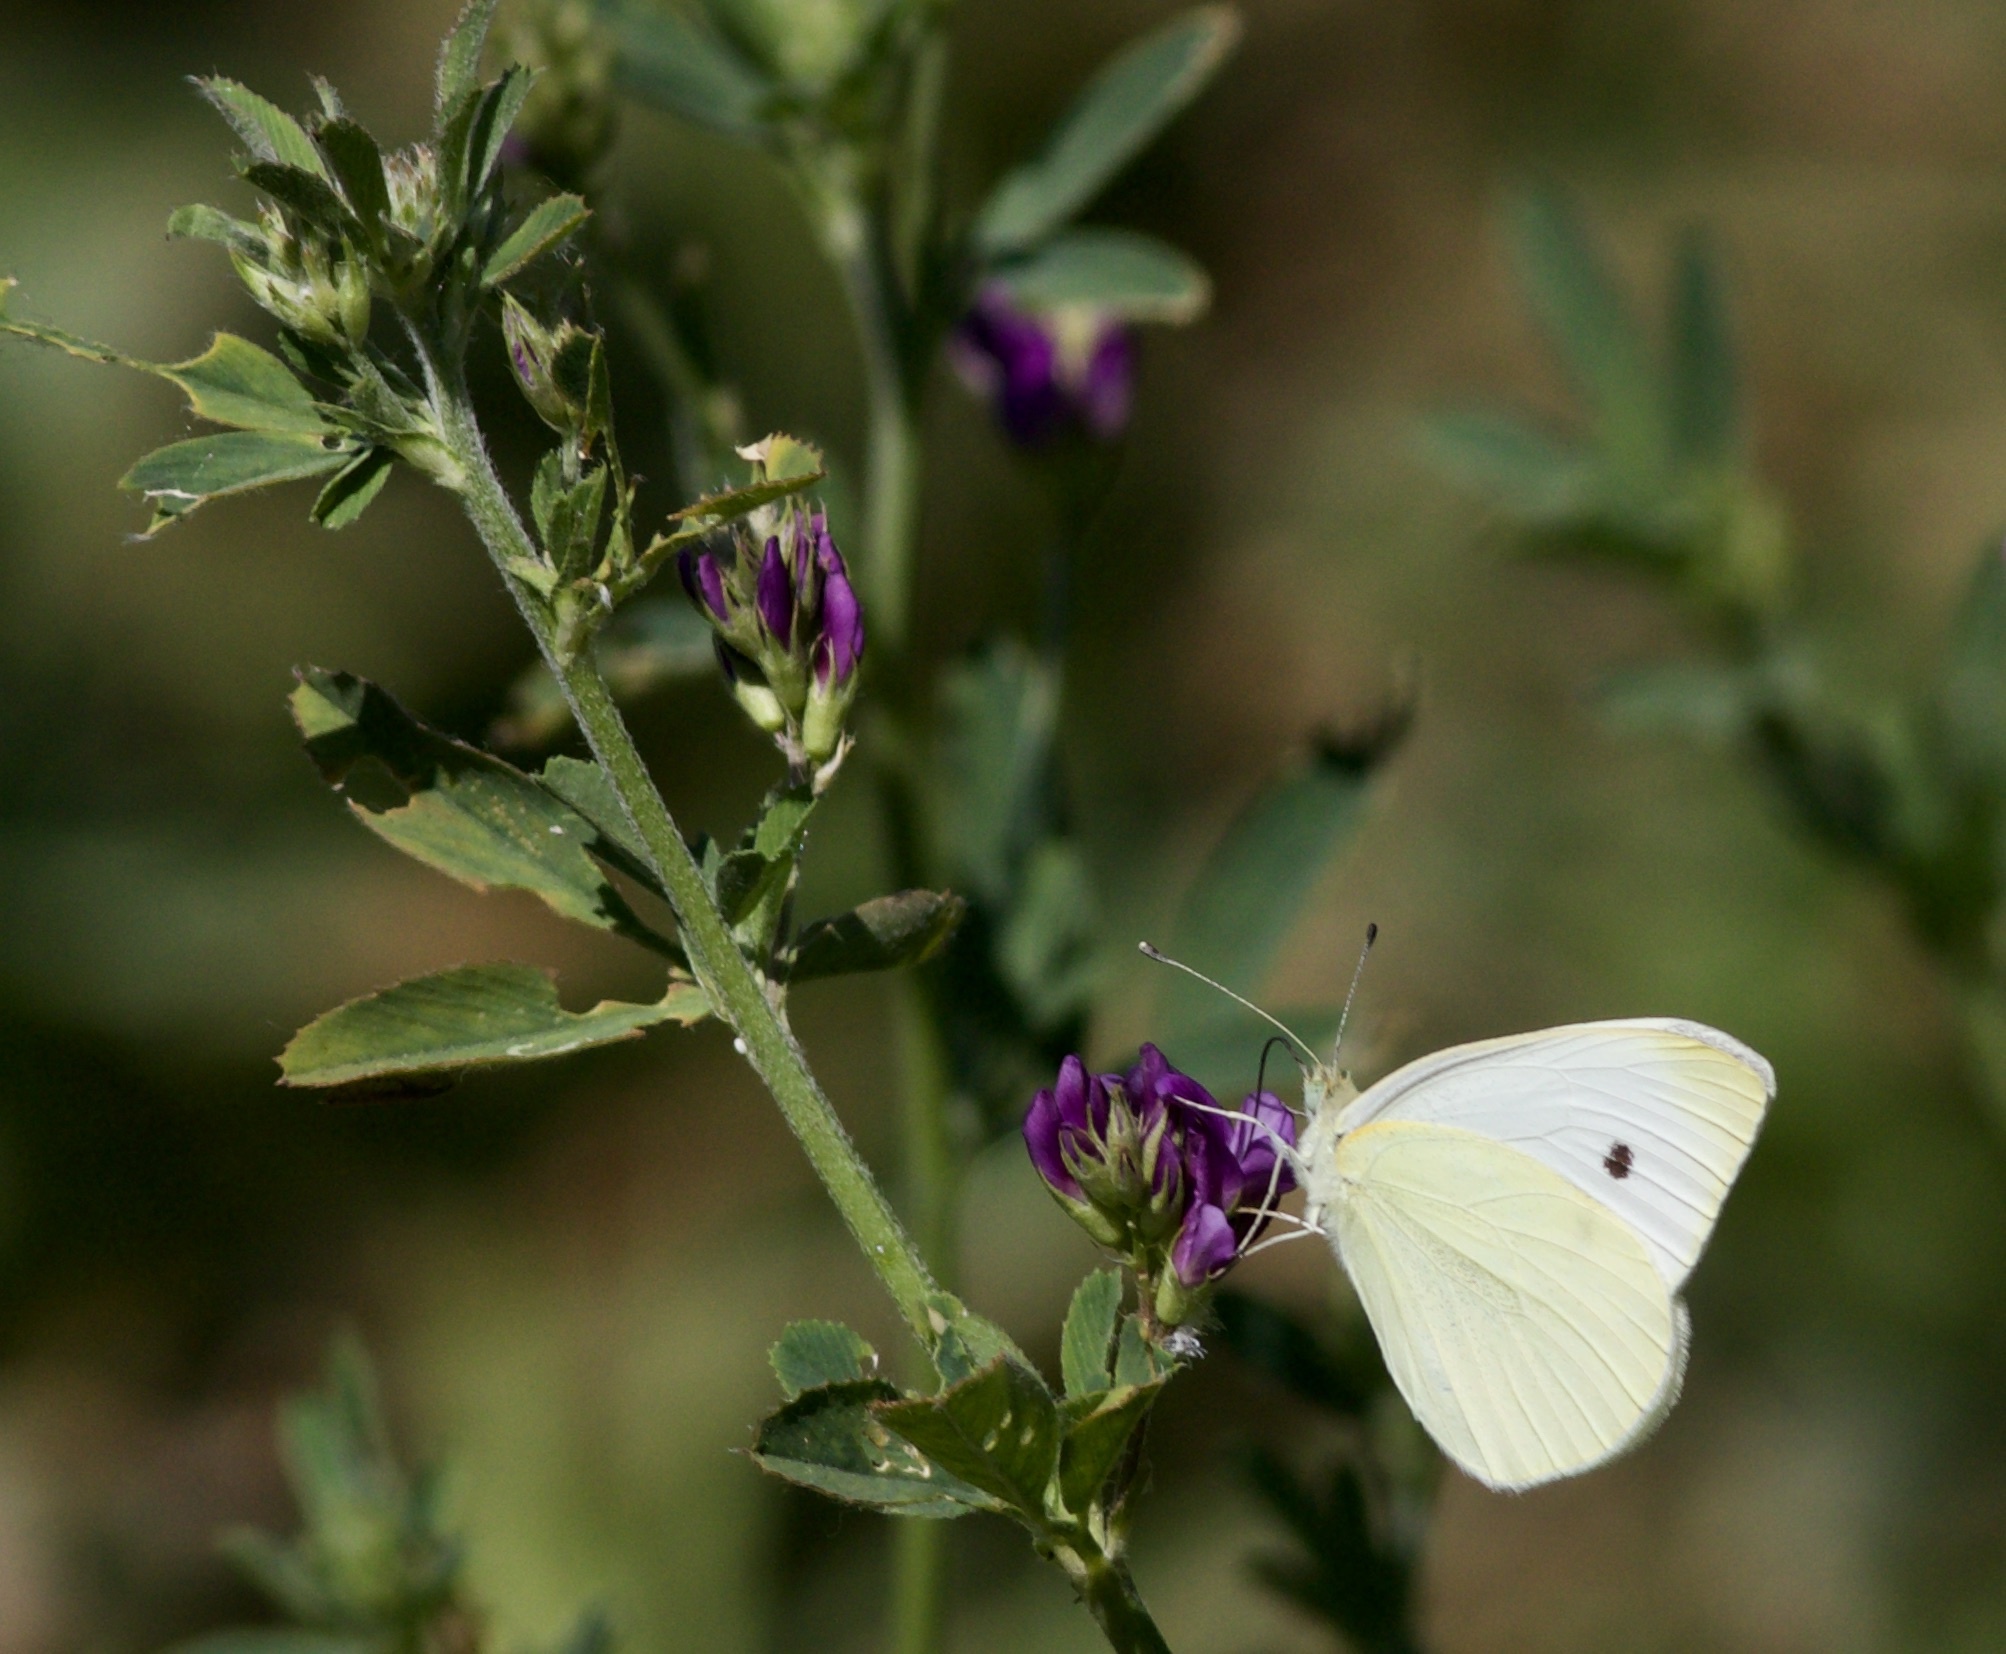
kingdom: Animalia
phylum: Arthropoda
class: Insecta
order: Lepidoptera
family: Pieridae
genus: Pieris
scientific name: Pieris rapae
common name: Small white
